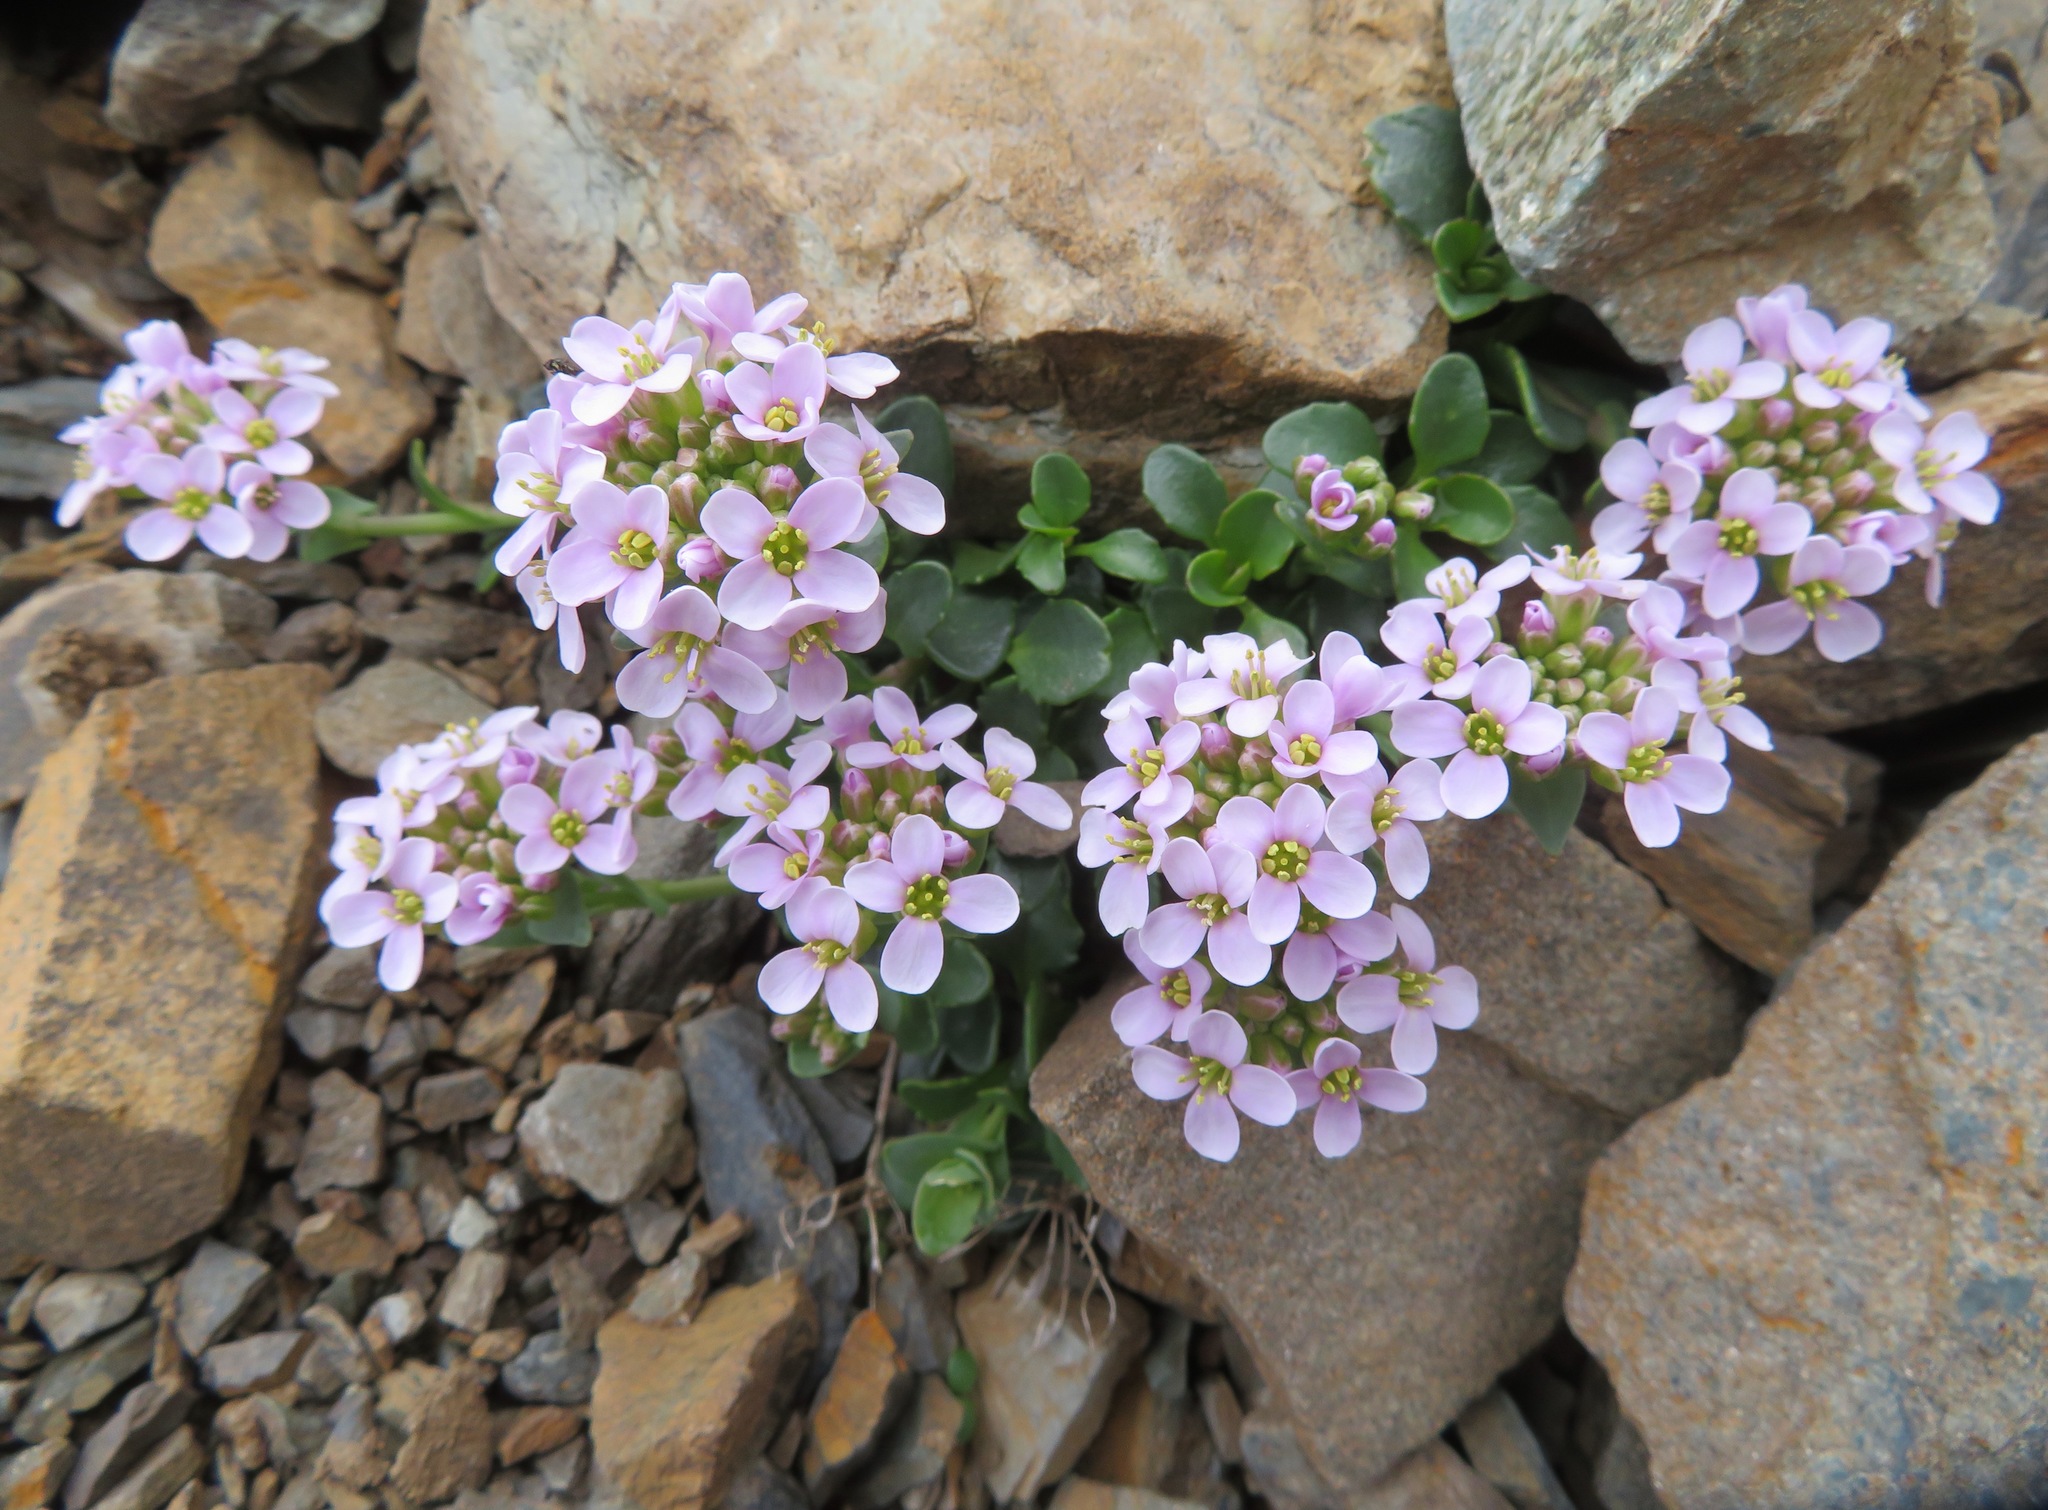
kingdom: Plantae
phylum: Tracheophyta
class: Magnoliopsida
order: Brassicales
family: Brassicaceae
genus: Noccaea
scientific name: Noccaea rotundifolia
